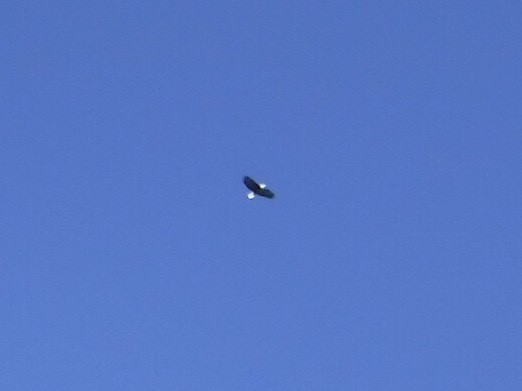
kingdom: Animalia
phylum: Chordata
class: Aves
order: Accipitriformes
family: Accipitridae
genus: Haliaeetus
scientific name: Haliaeetus leucocephalus
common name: Bald eagle
